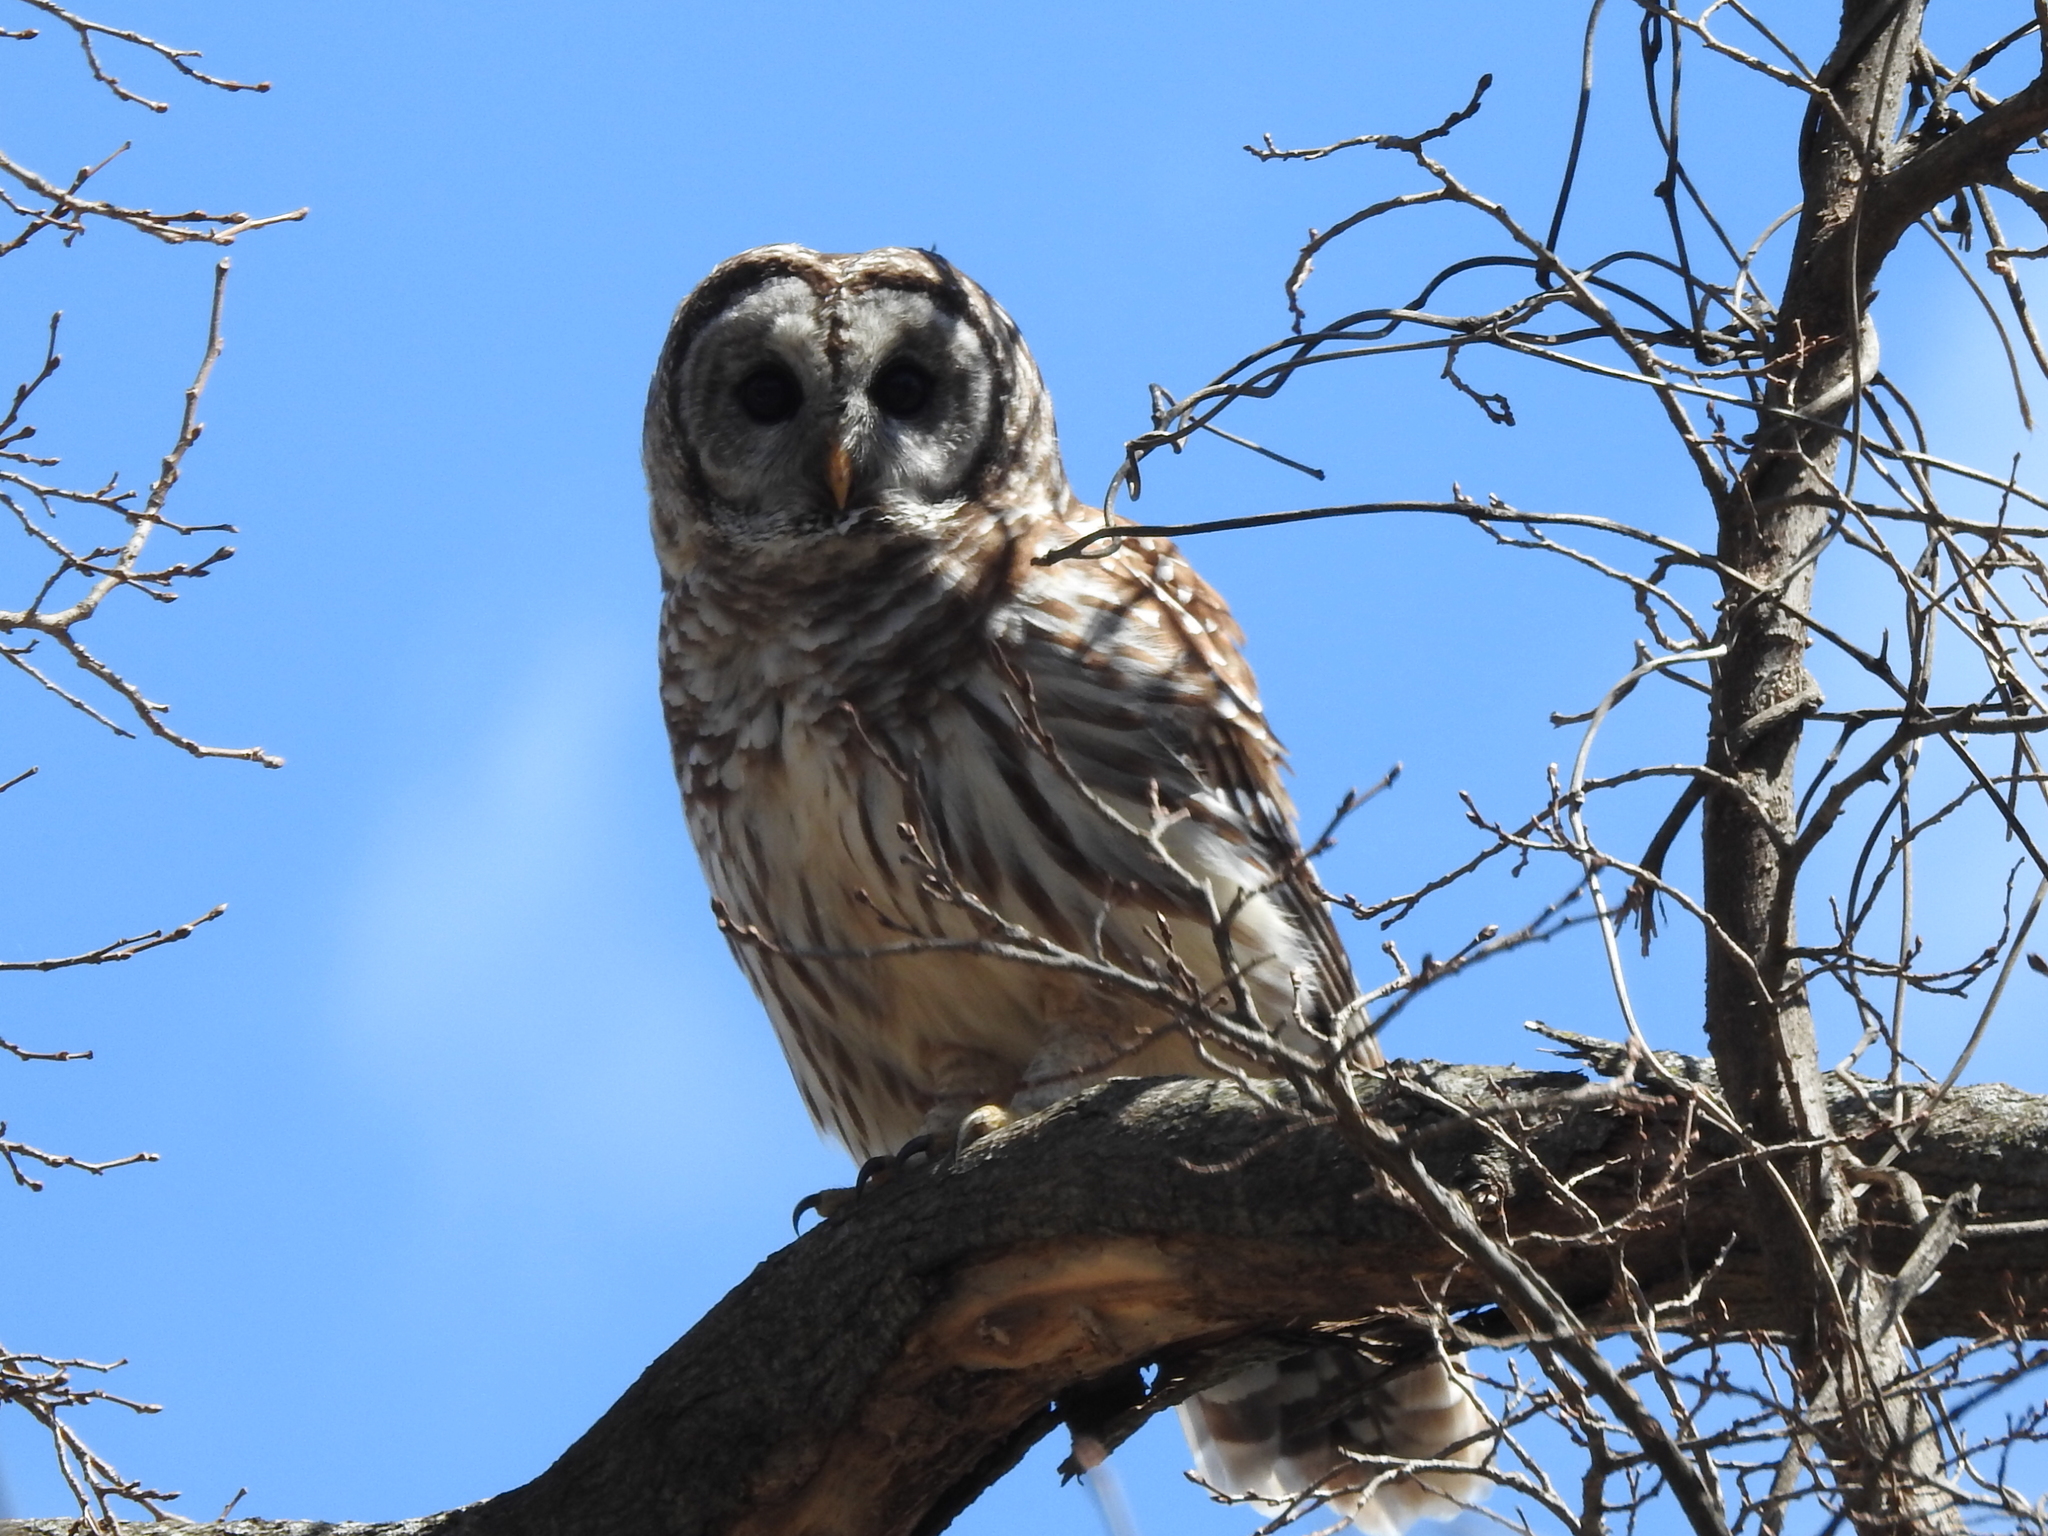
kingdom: Animalia
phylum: Chordata
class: Aves
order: Strigiformes
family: Strigidae
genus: Strix
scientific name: Strix varia
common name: Barred owl
